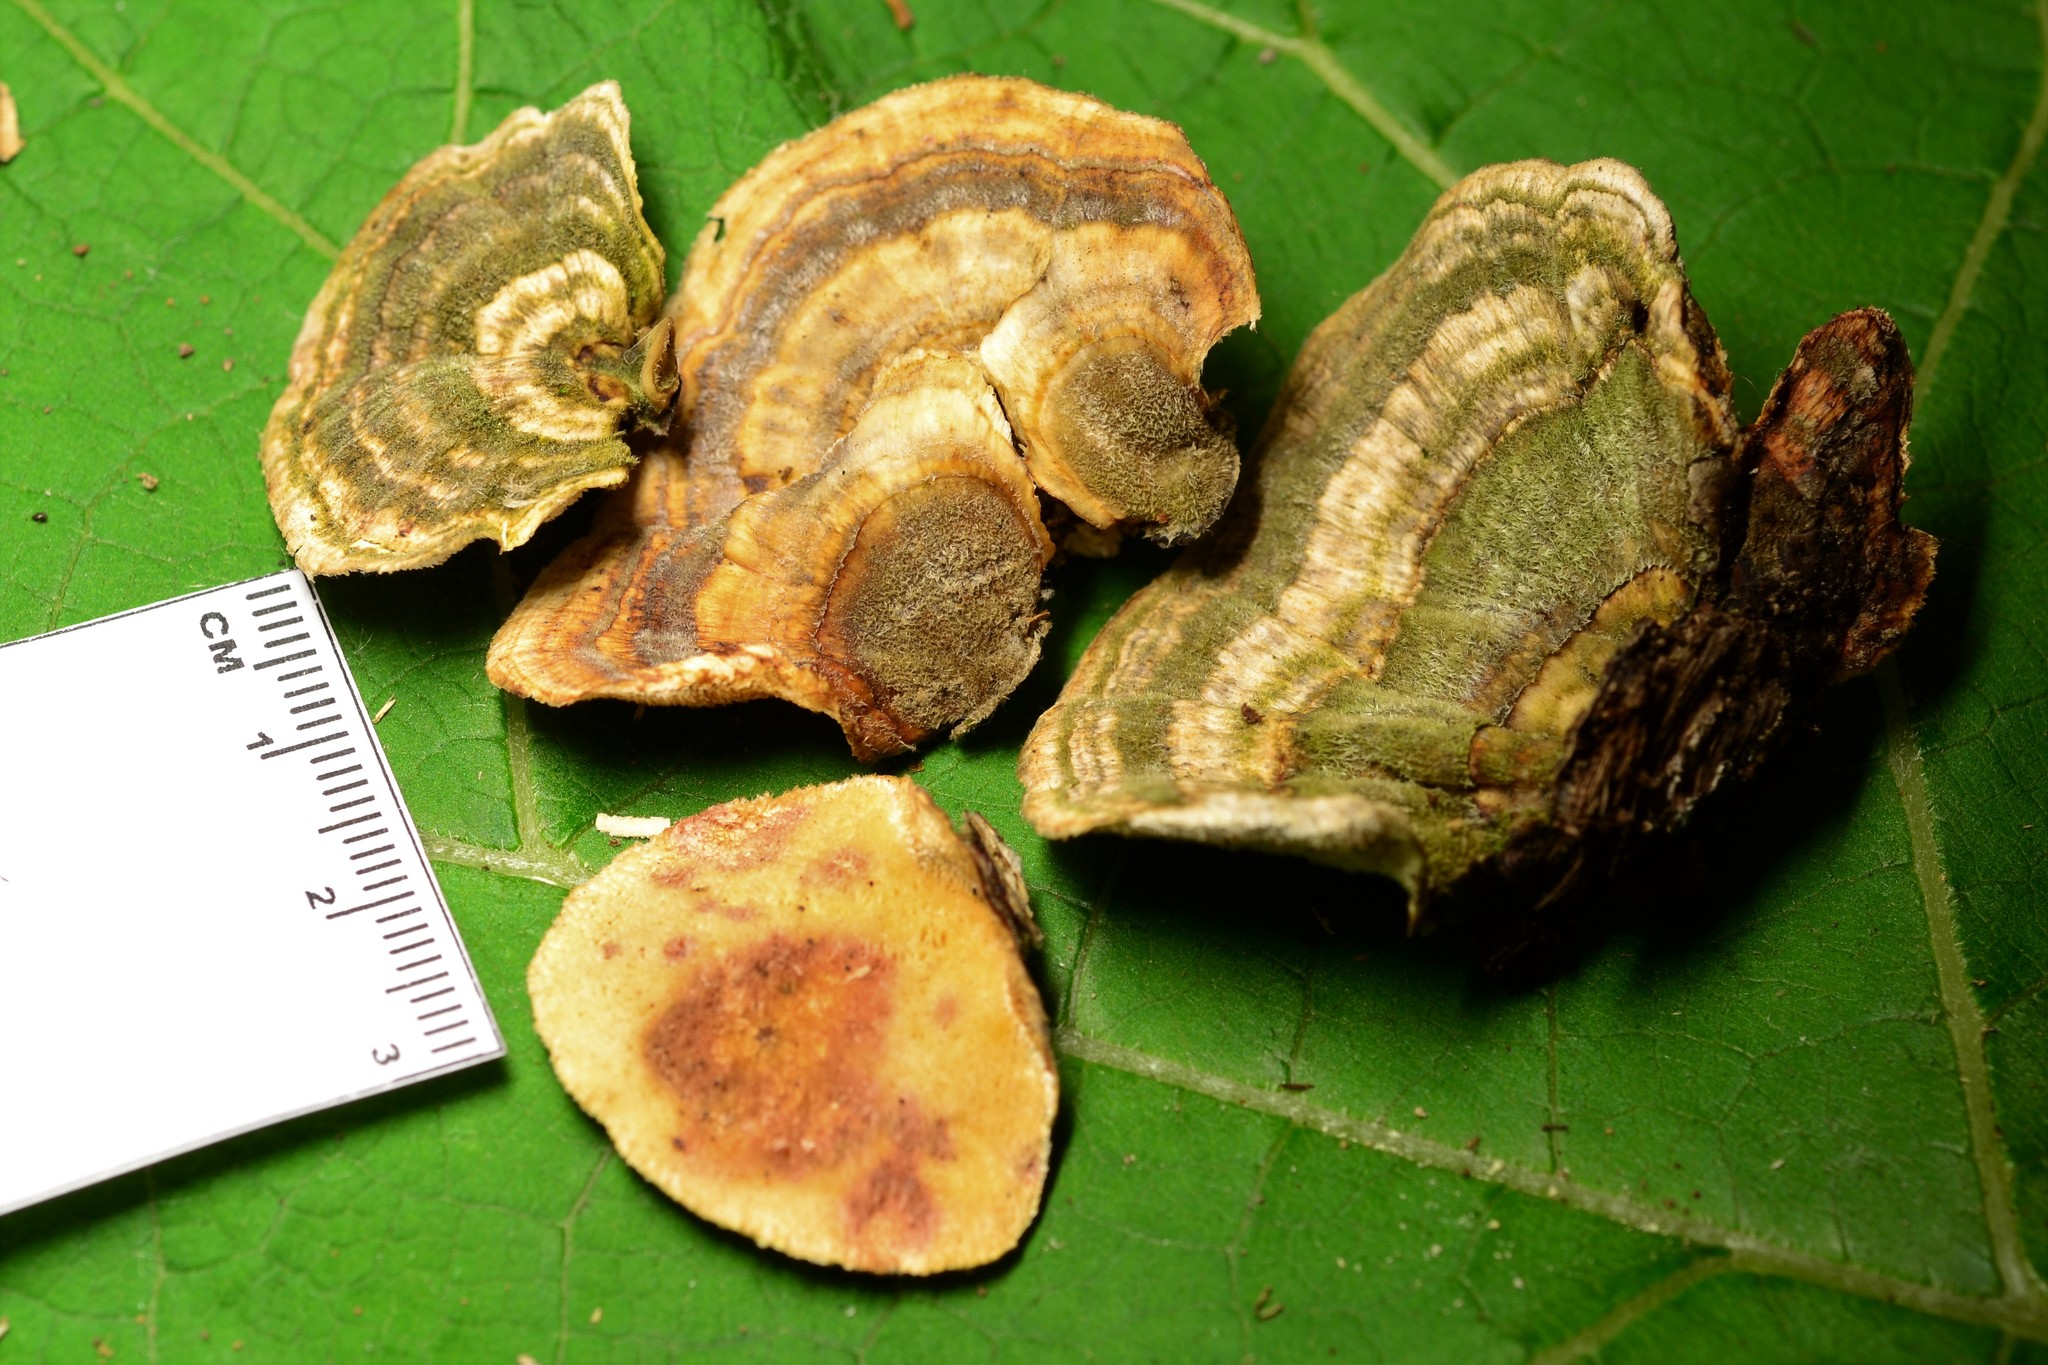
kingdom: Fungi
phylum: Basidiomycota
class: Agaricomycetes
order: Polyporales
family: Polyporaceae
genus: Trametes
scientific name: Trametes versicolor
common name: Turkeytail
